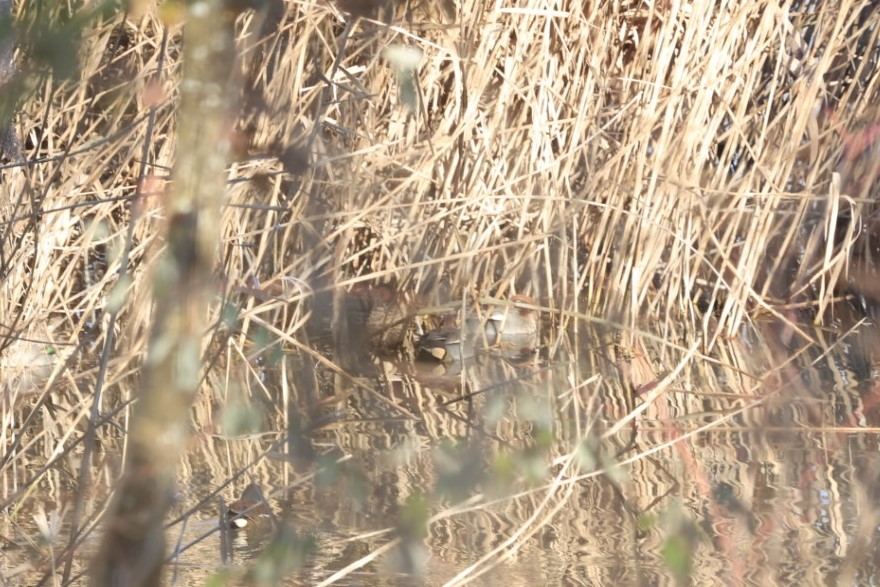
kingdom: Animalia
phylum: Chordata
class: Aves
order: Anseriformes
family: Anatidae
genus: Anas
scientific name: Anas crecca
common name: Eurasian teal
